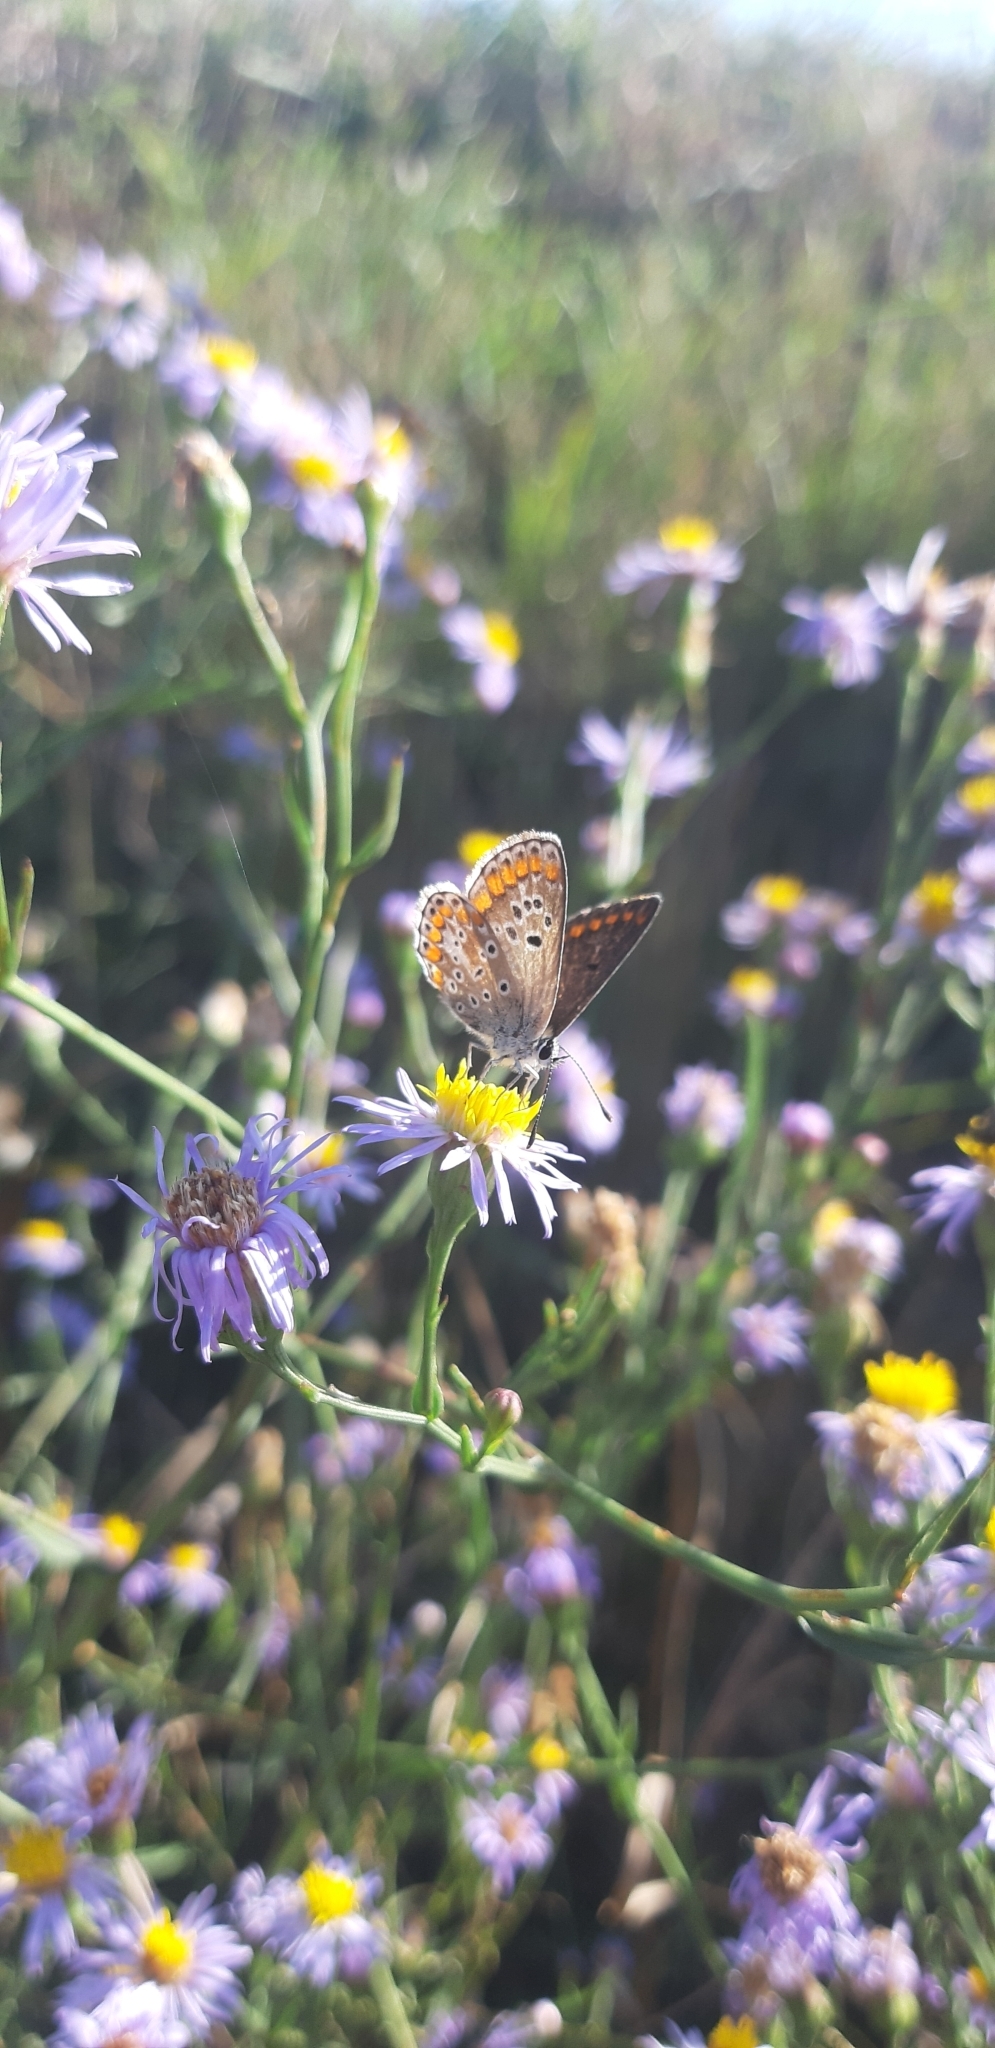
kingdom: Animalia
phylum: Arthropoda
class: Insecta
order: Lepidoptera
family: Lycaenidae
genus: Aricia
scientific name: Aricia agestis
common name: Brown argus
